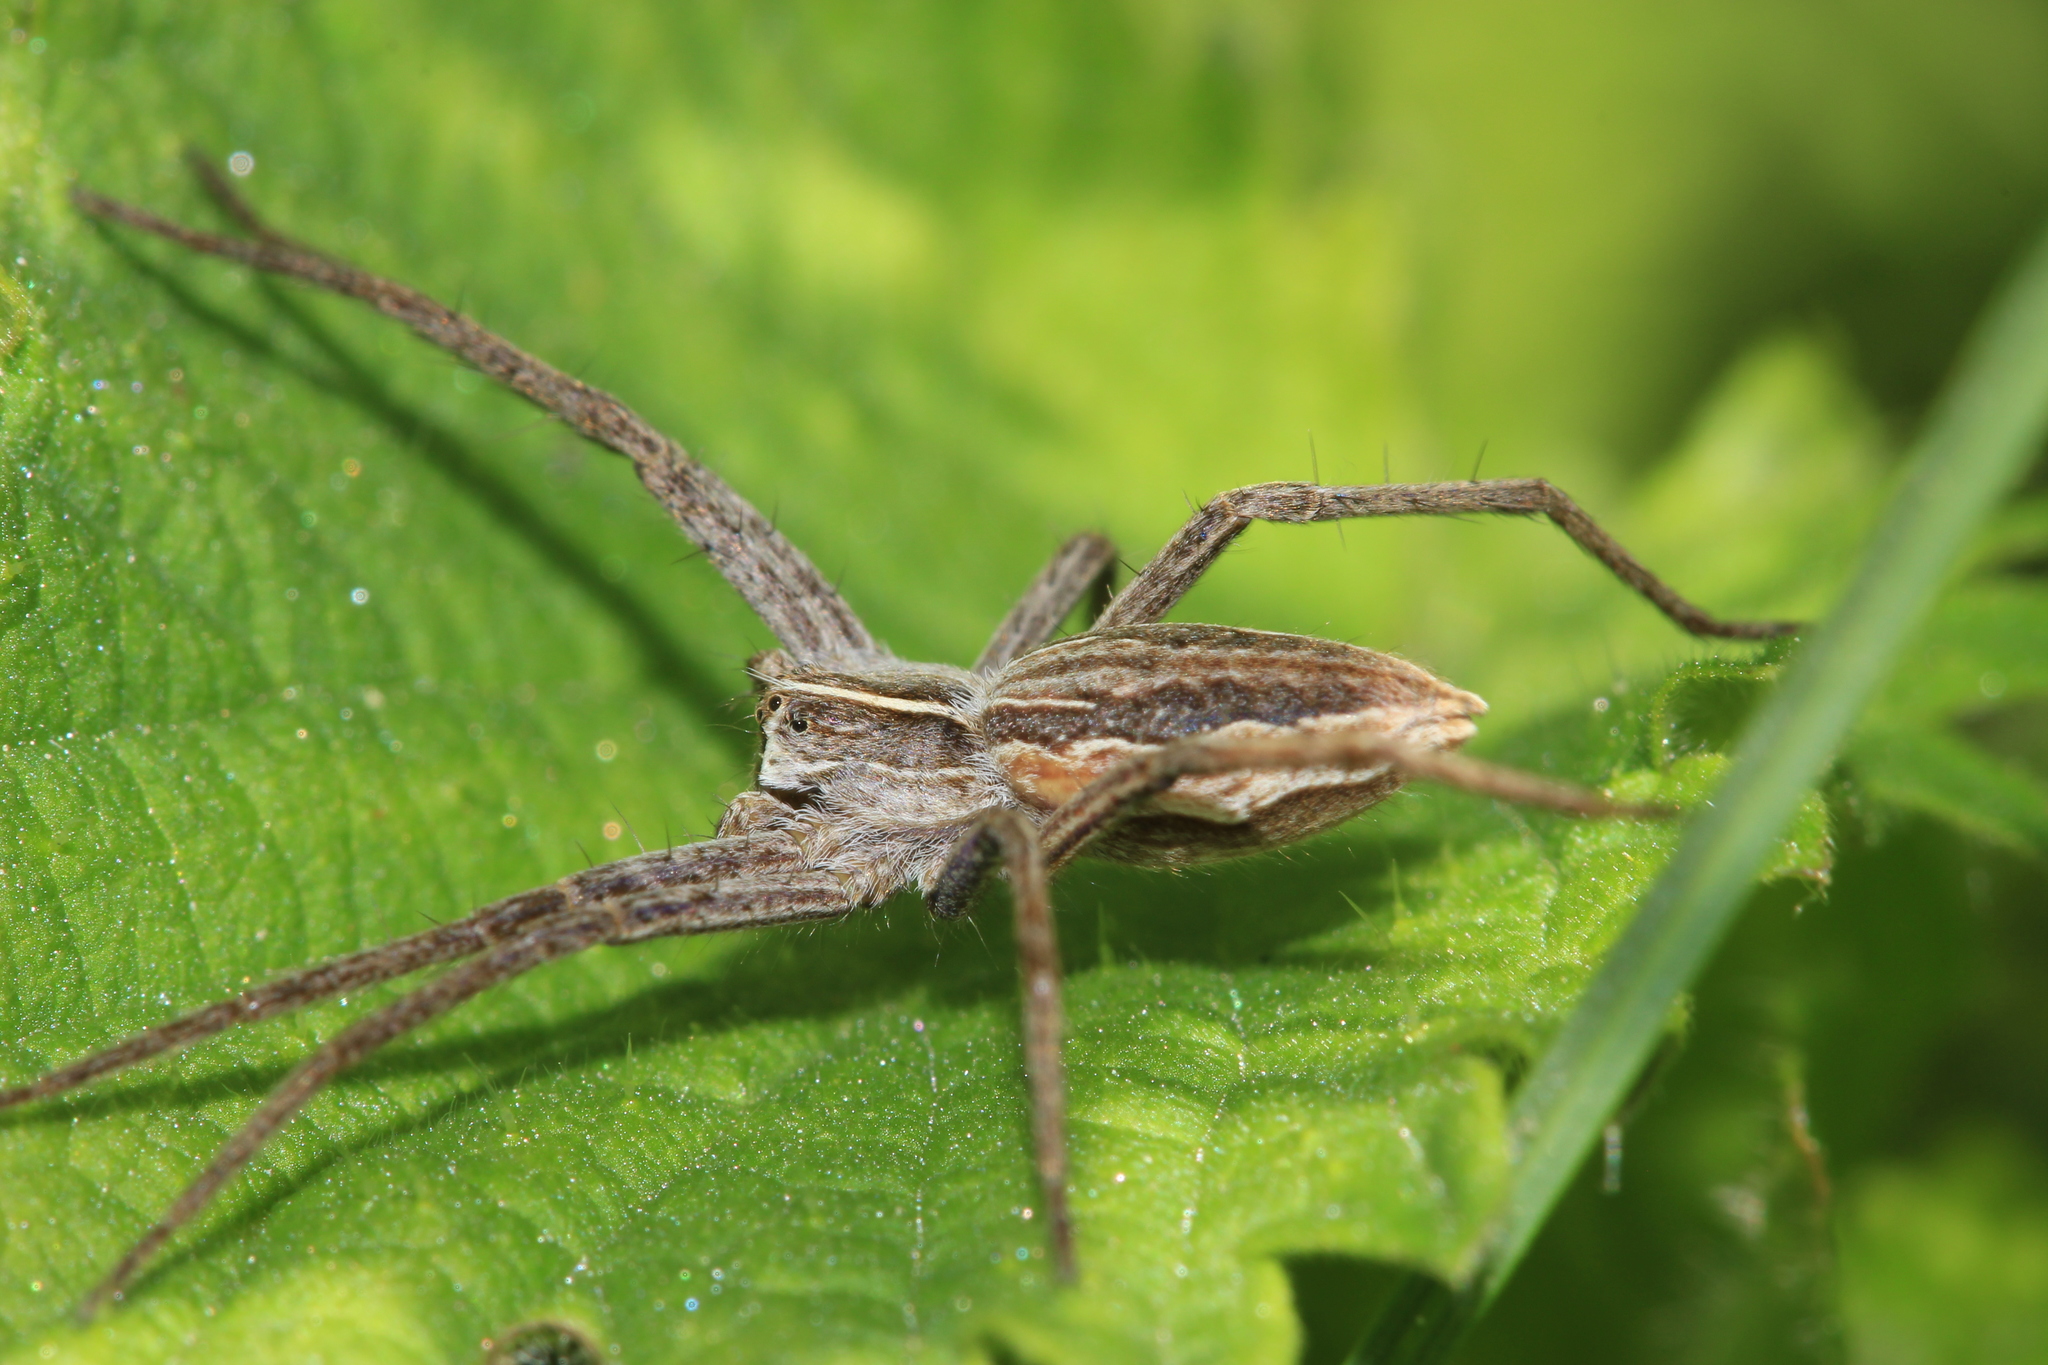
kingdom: Animalia
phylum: Arthropoda
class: Arachnida
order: Araneae
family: Pisauridae
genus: Pisaura
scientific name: Pisaura mirabilis
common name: Tent spider
